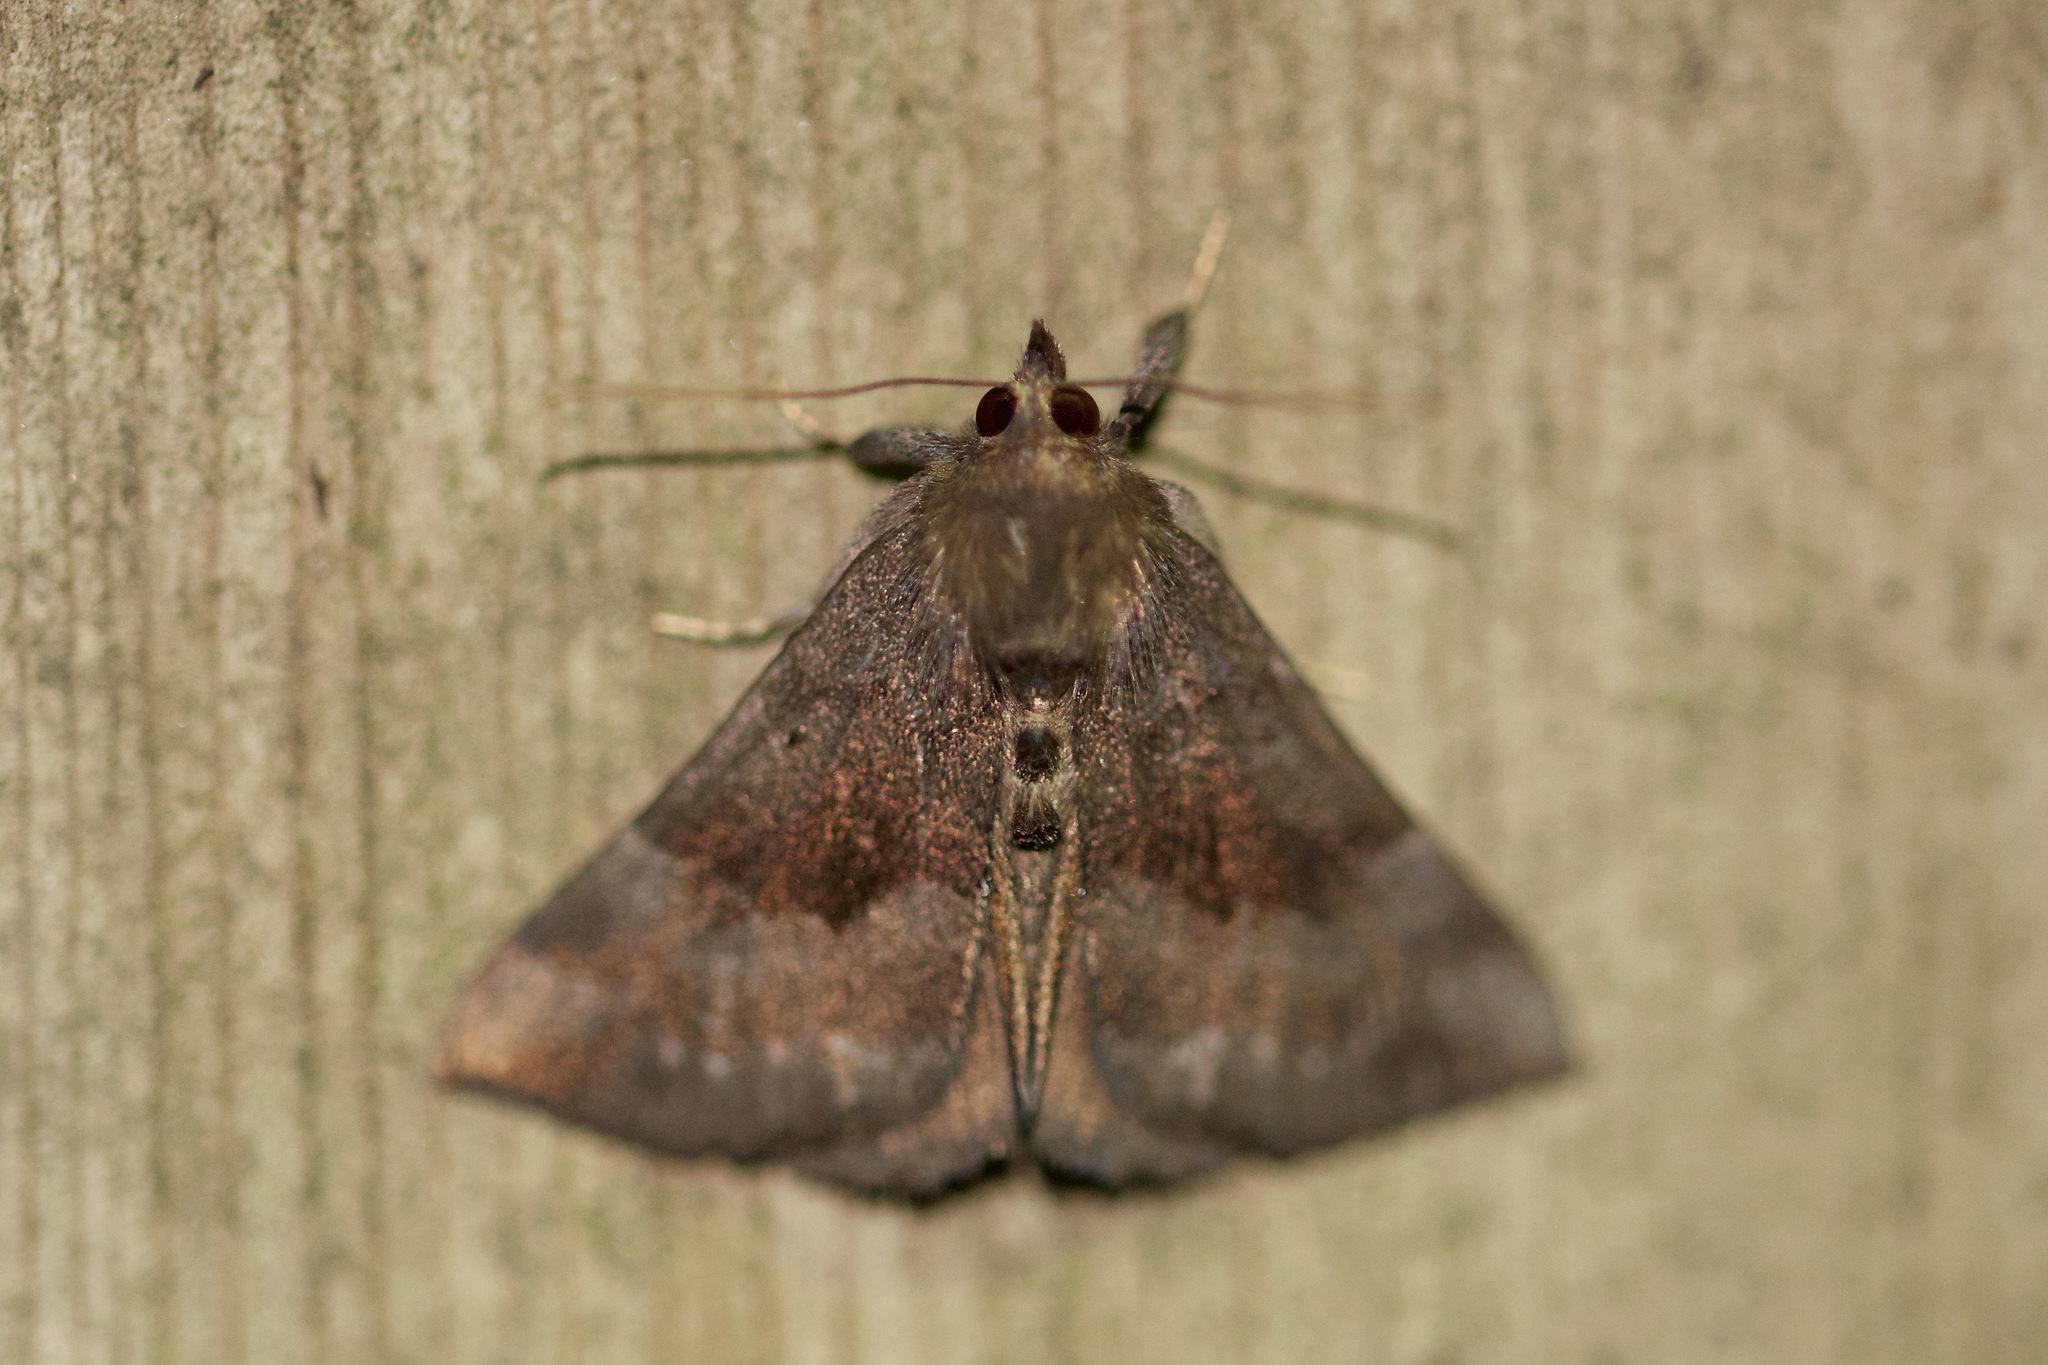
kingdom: Animalia
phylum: Arthropoda
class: Insecta
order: Lepidoptera
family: Erebidae
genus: Hypena
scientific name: Hypena madefactalis
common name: Gray-edged snout
